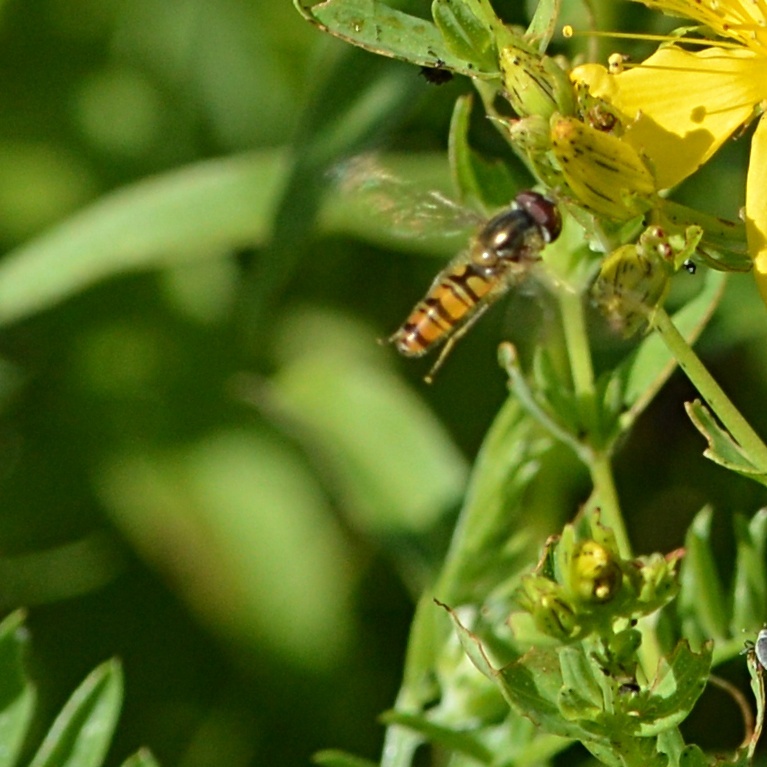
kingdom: Animalia
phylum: Arthropoda
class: Insecta
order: Diptera
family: Syrphidae
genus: Episyrphus
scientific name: Episyrphus balteatus
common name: Marmalade hoverfly
